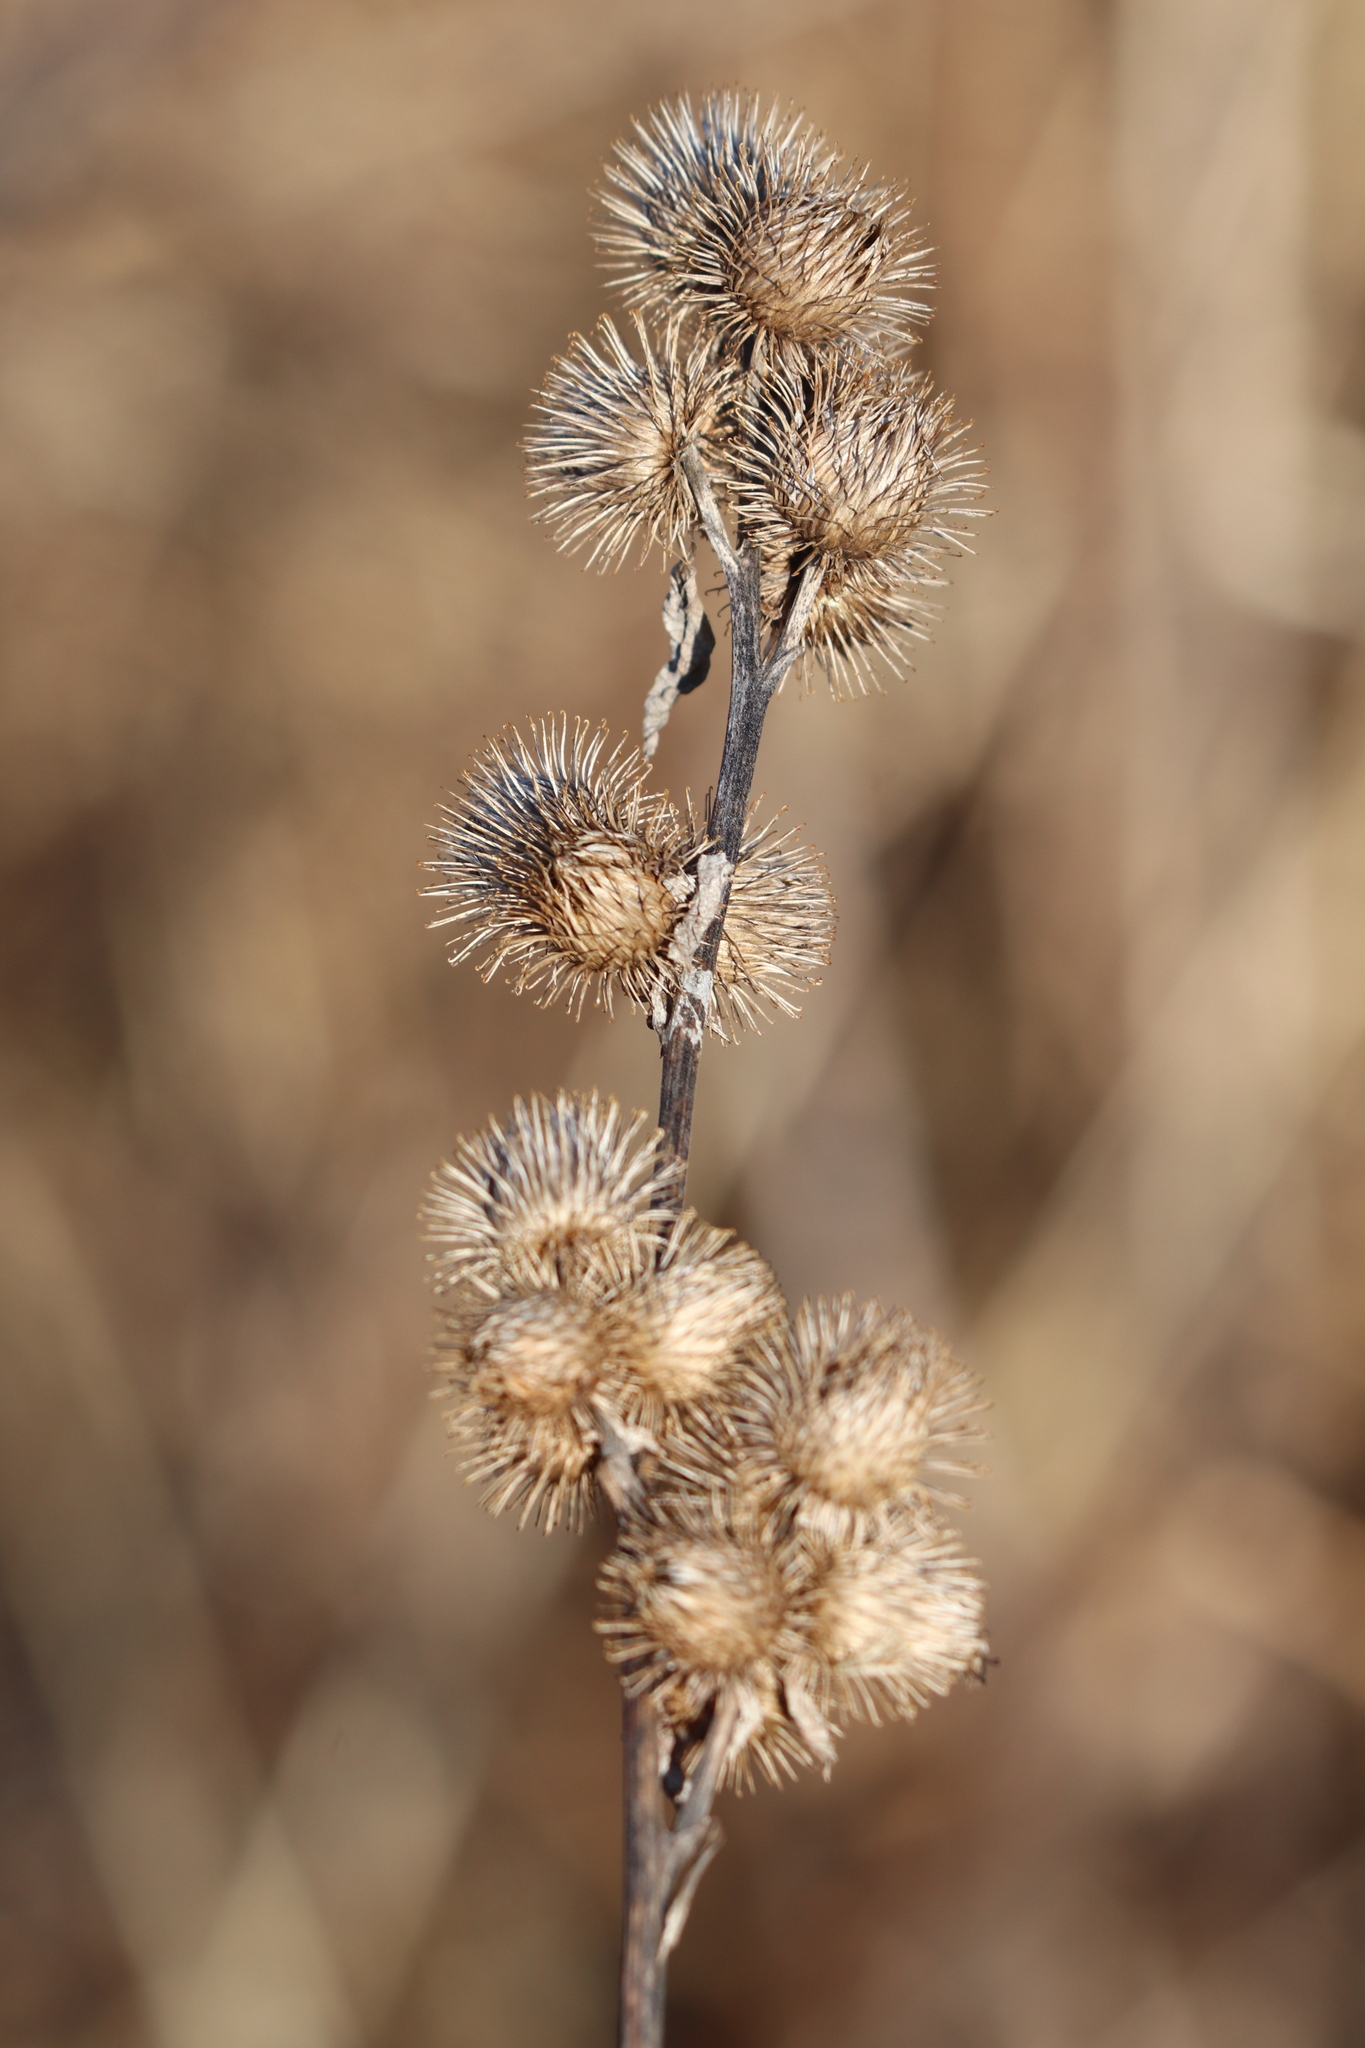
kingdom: Plantae
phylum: Tracheophyta
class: Magnoliopsida
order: Asterales
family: Asteraceae
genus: Arctium
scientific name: Arctium minus
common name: Lesser burdock
